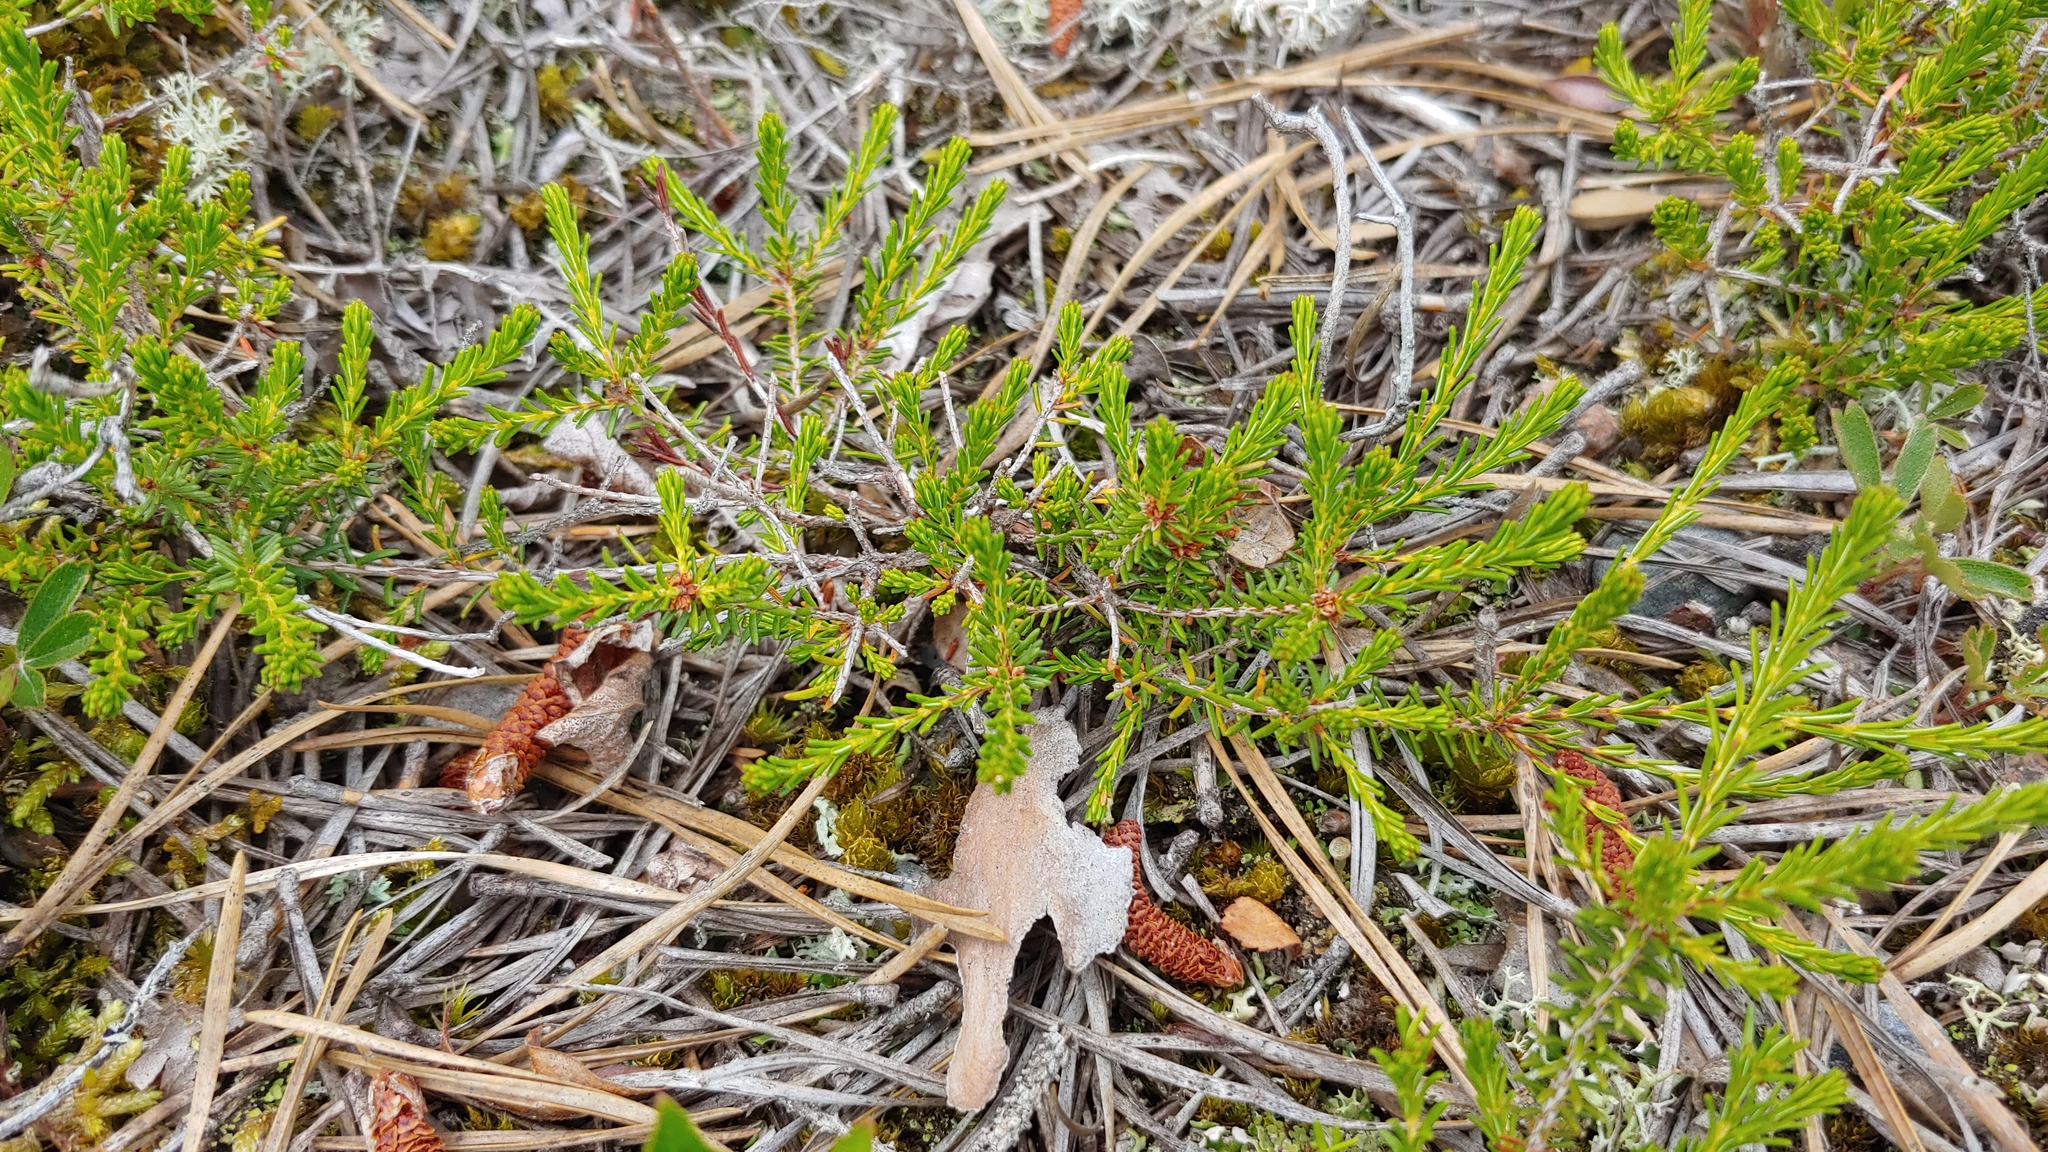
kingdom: Plantae
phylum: Tracheophyta
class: Magnoliopsida
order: Ericales
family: Ericaceae
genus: Corema
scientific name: Corema conradii
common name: Broom-crowberry
